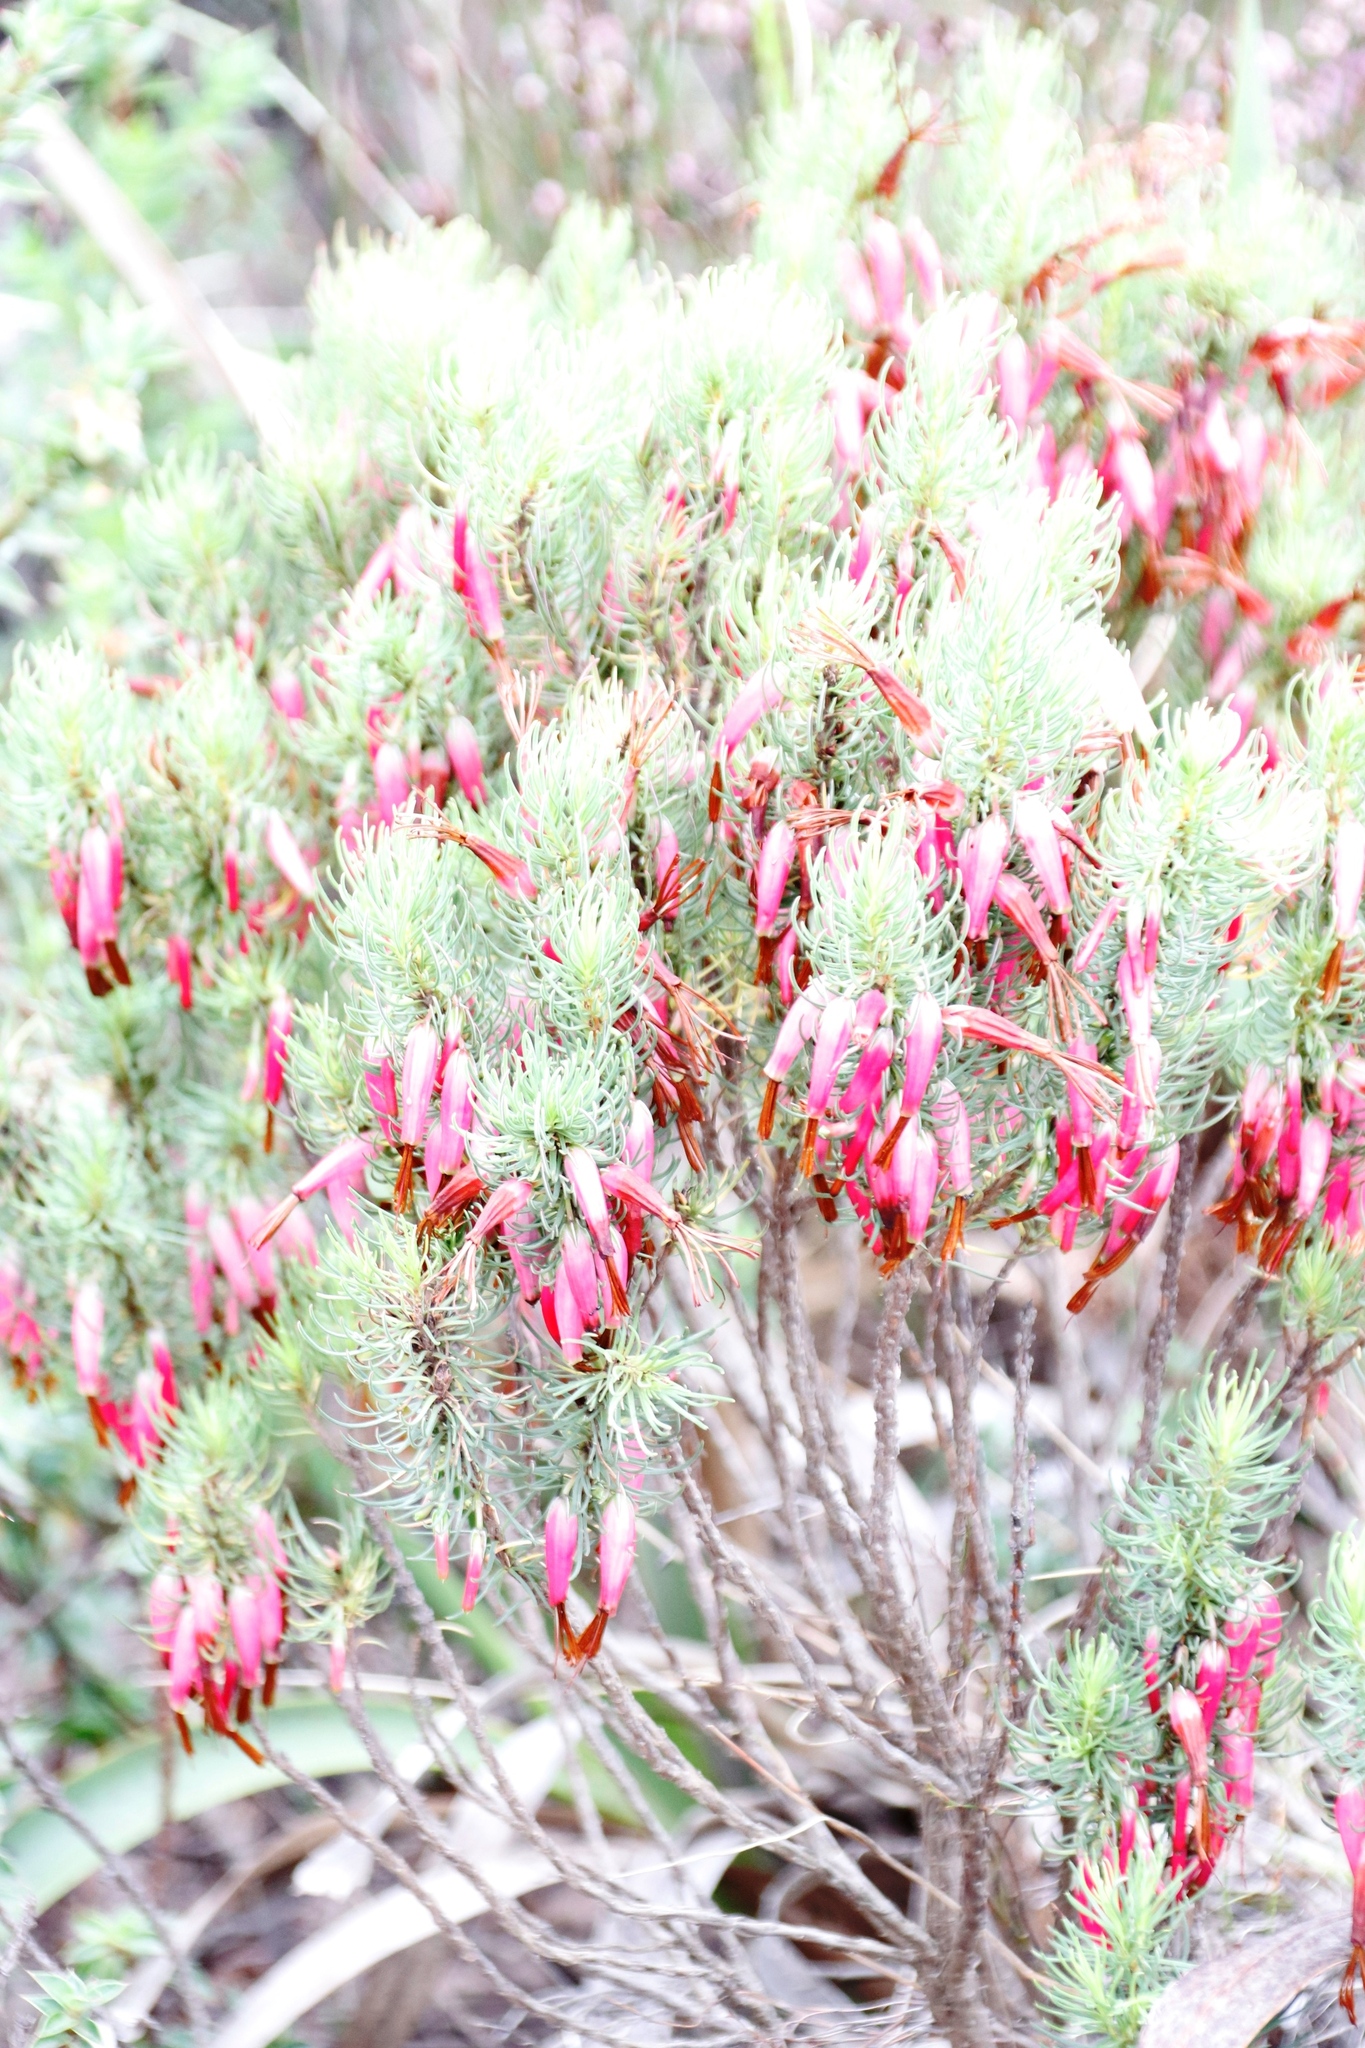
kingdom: Plantae
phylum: Tracheophyta
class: Magnoliopsida
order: Ericales
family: Ericaceae
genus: Erica
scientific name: Erica plukenetii
